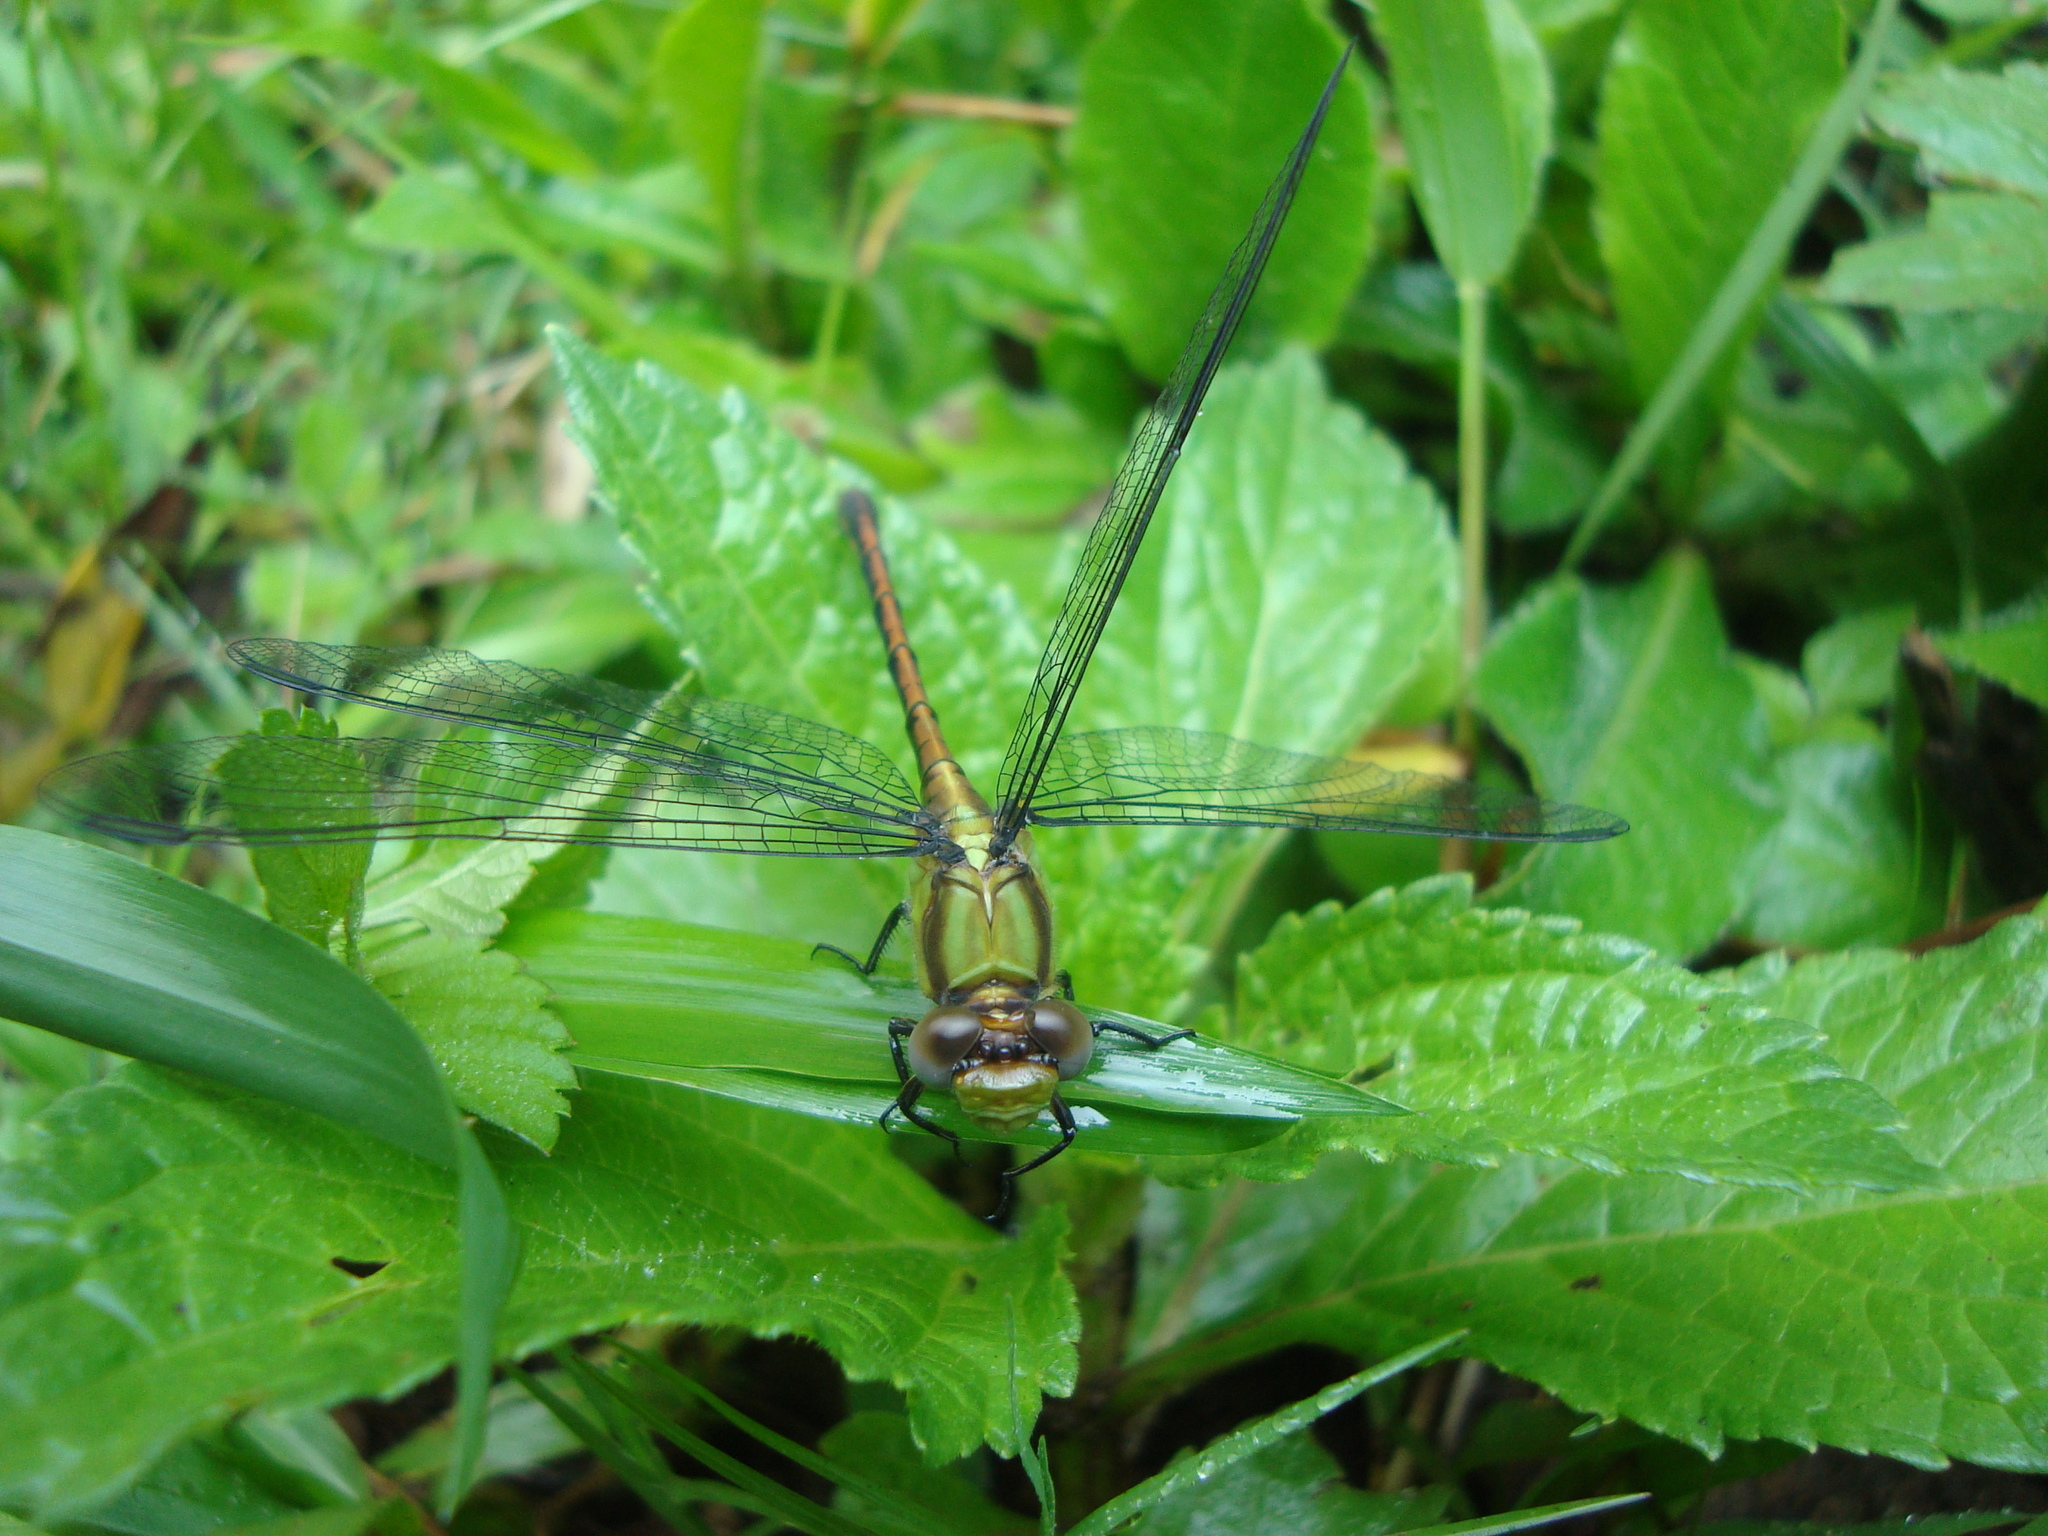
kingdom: Animalia
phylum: Arthropoda
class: Insecta
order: Odonata
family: Gomphidae
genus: Erpetogomphus
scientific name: Erpetogomphus sipedon
